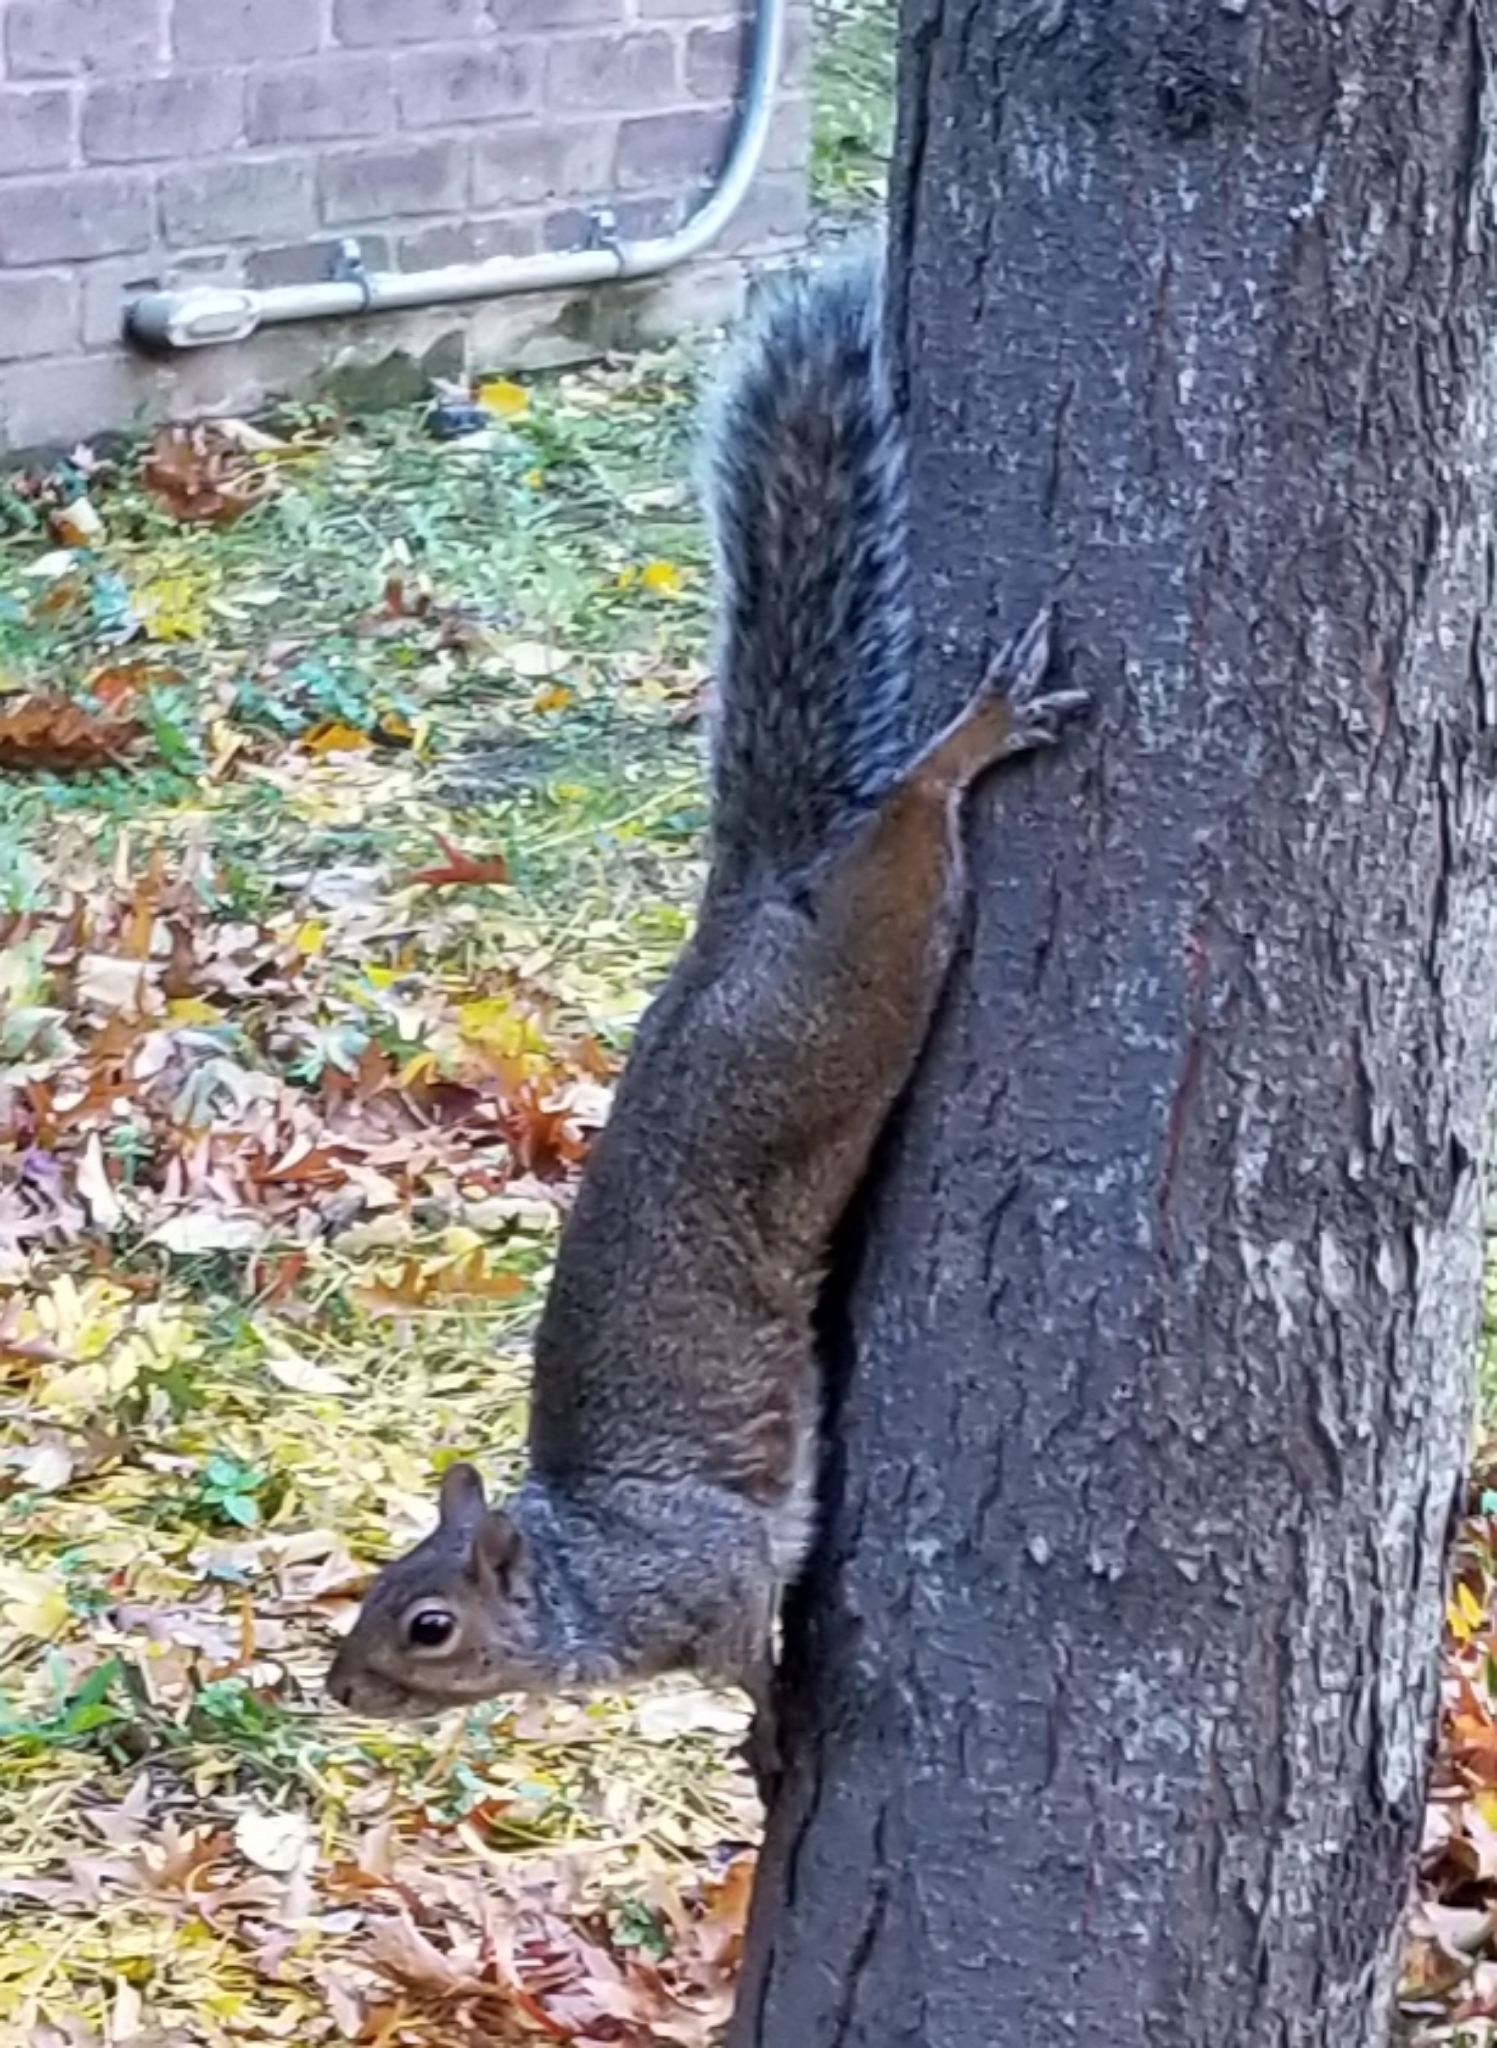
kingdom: Animalia
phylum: Chordata
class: Mammalia
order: Rodentia
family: Sciuridae
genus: Sciurus
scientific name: Sciurus carolinensis
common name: Eastern gray squirrel
